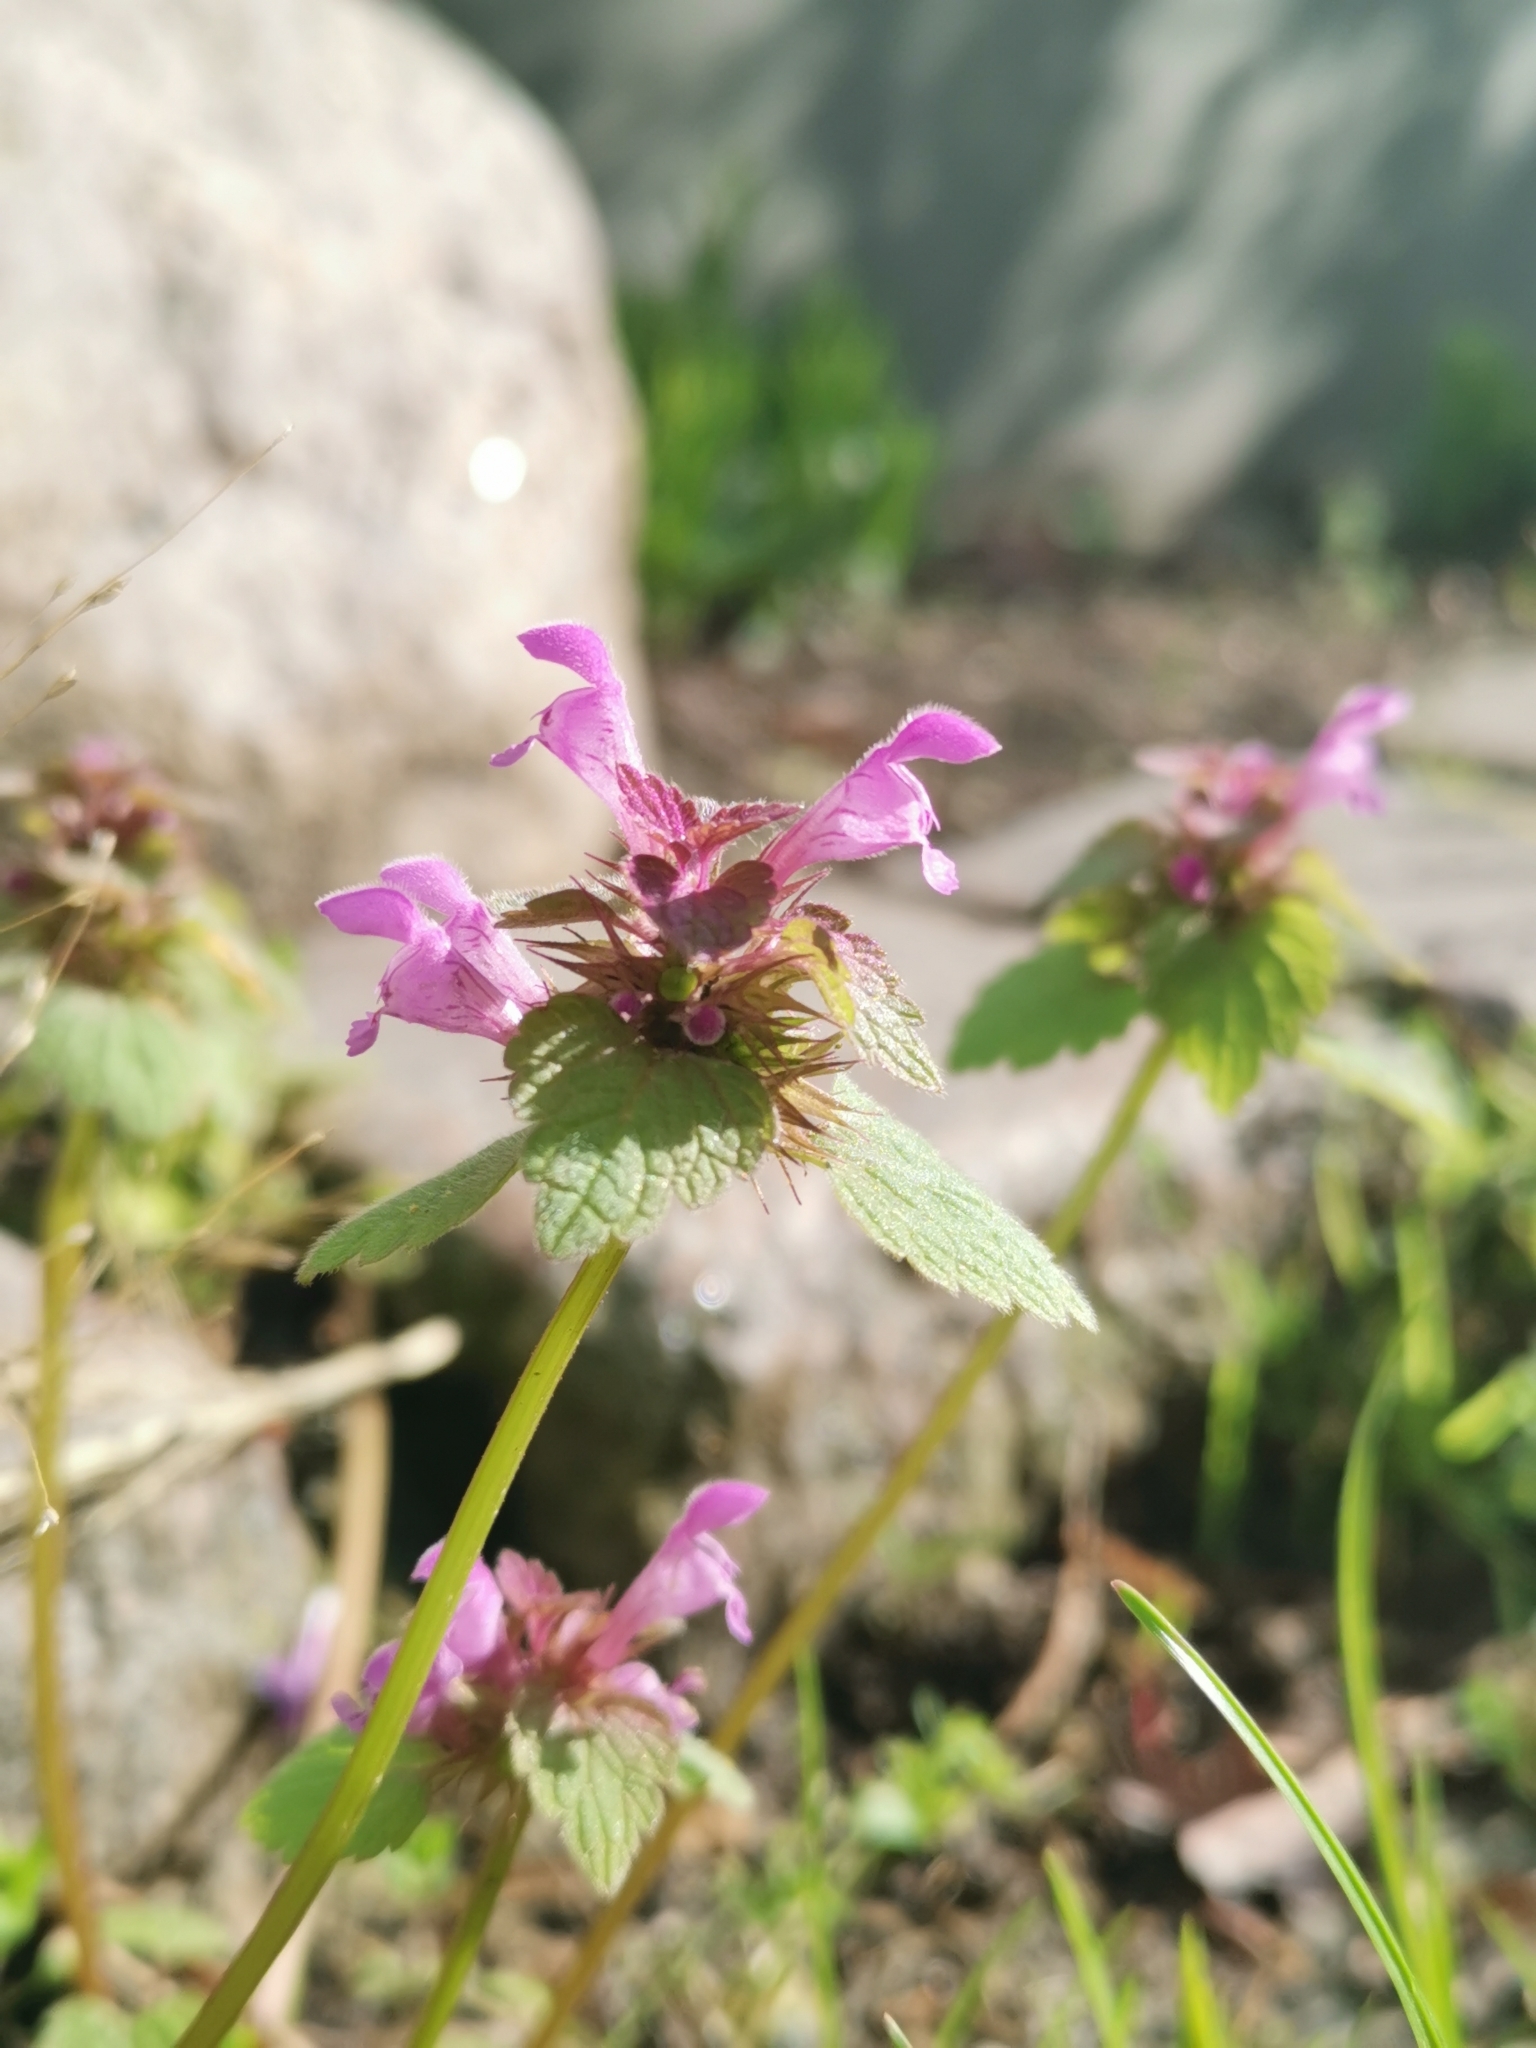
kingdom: Plantae
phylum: Tracheophyta
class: Magnoliopsida
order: Lamiales
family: Lamiaceae
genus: Lamium
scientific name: Lamium purpureum
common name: Red dead-nettle
